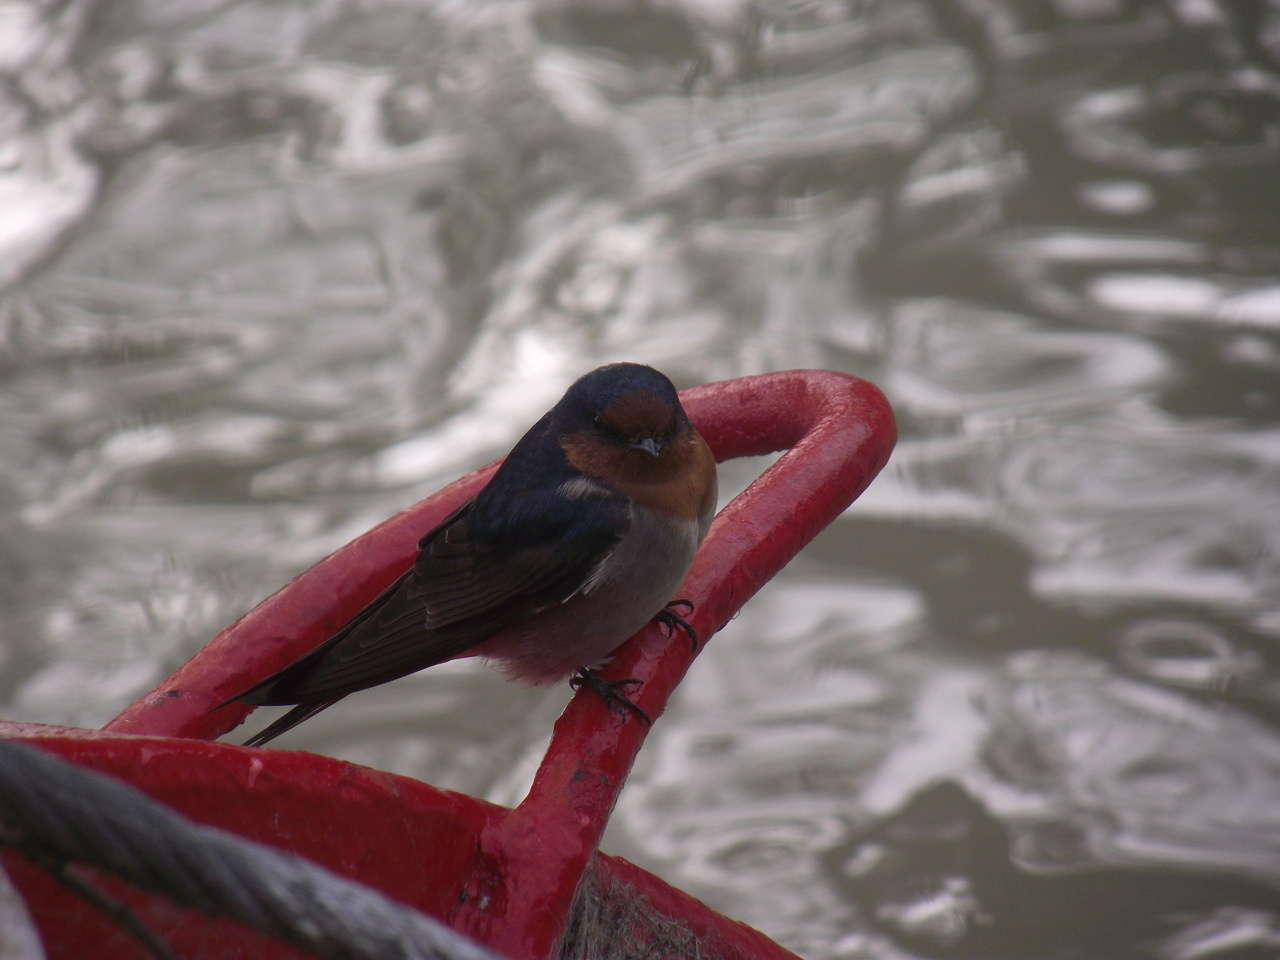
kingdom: Animalia
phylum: Chordata
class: Aves
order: Passeriformes
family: Hirundinidae
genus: Hirundo
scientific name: Hirundo neoxena
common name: Welcome swallow
